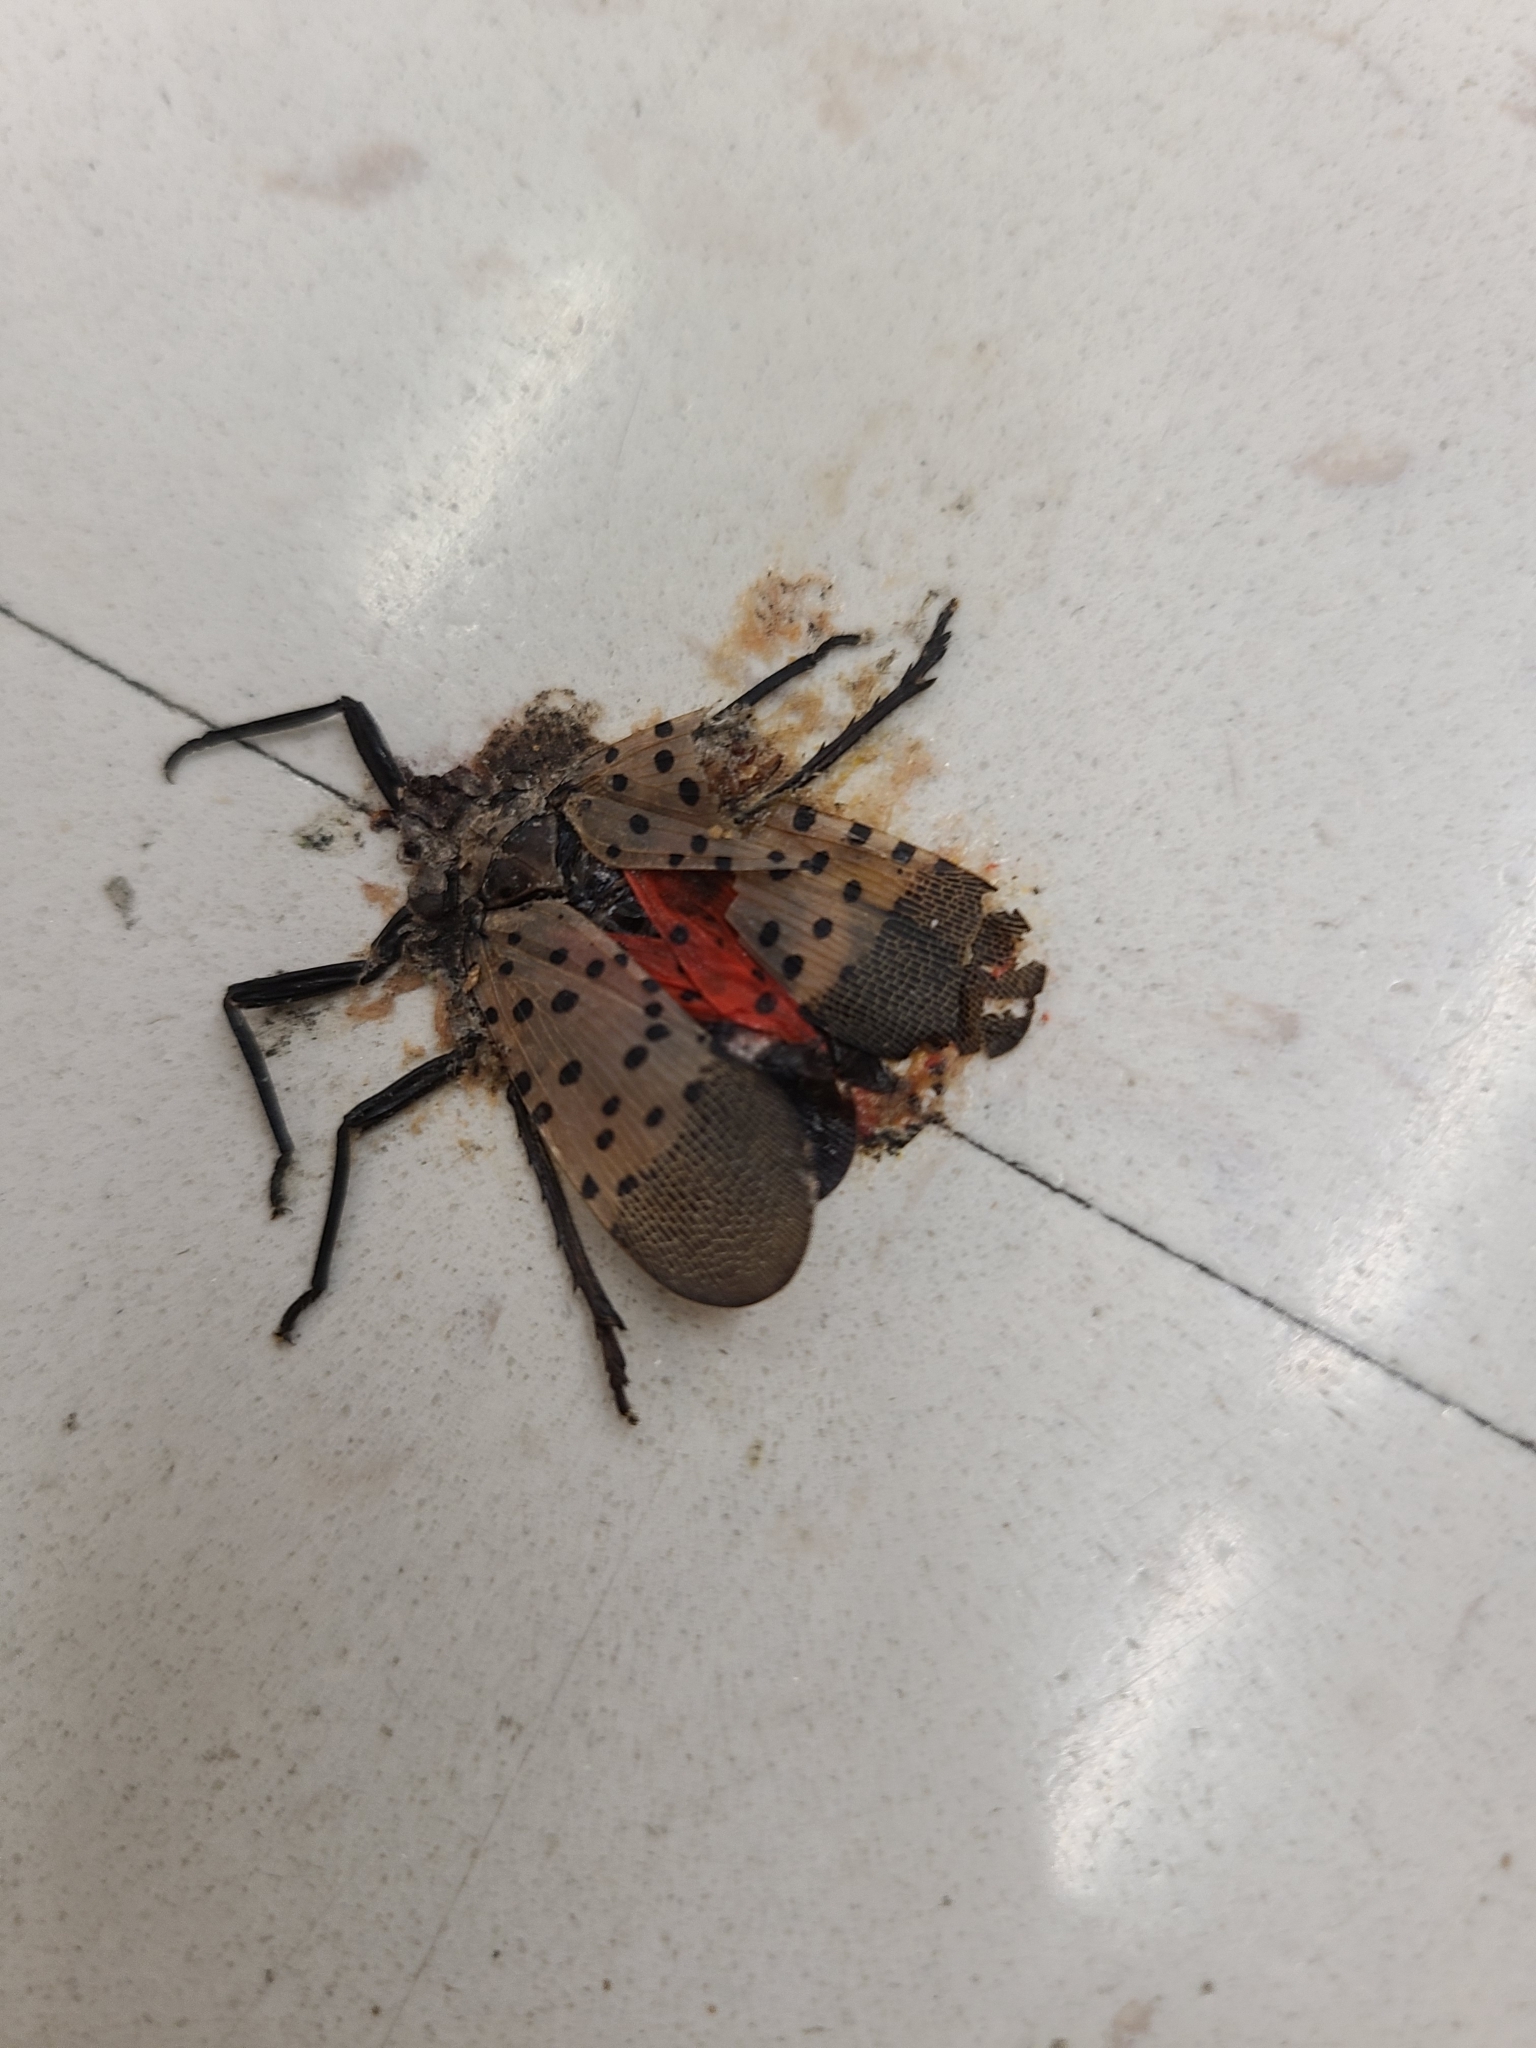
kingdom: Animalia
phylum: Arthropoda
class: Insecta
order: Hemiptera
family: Fulgoridae
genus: Lycorma
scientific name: Lycorma delicatula
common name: Spotted lanternfly
